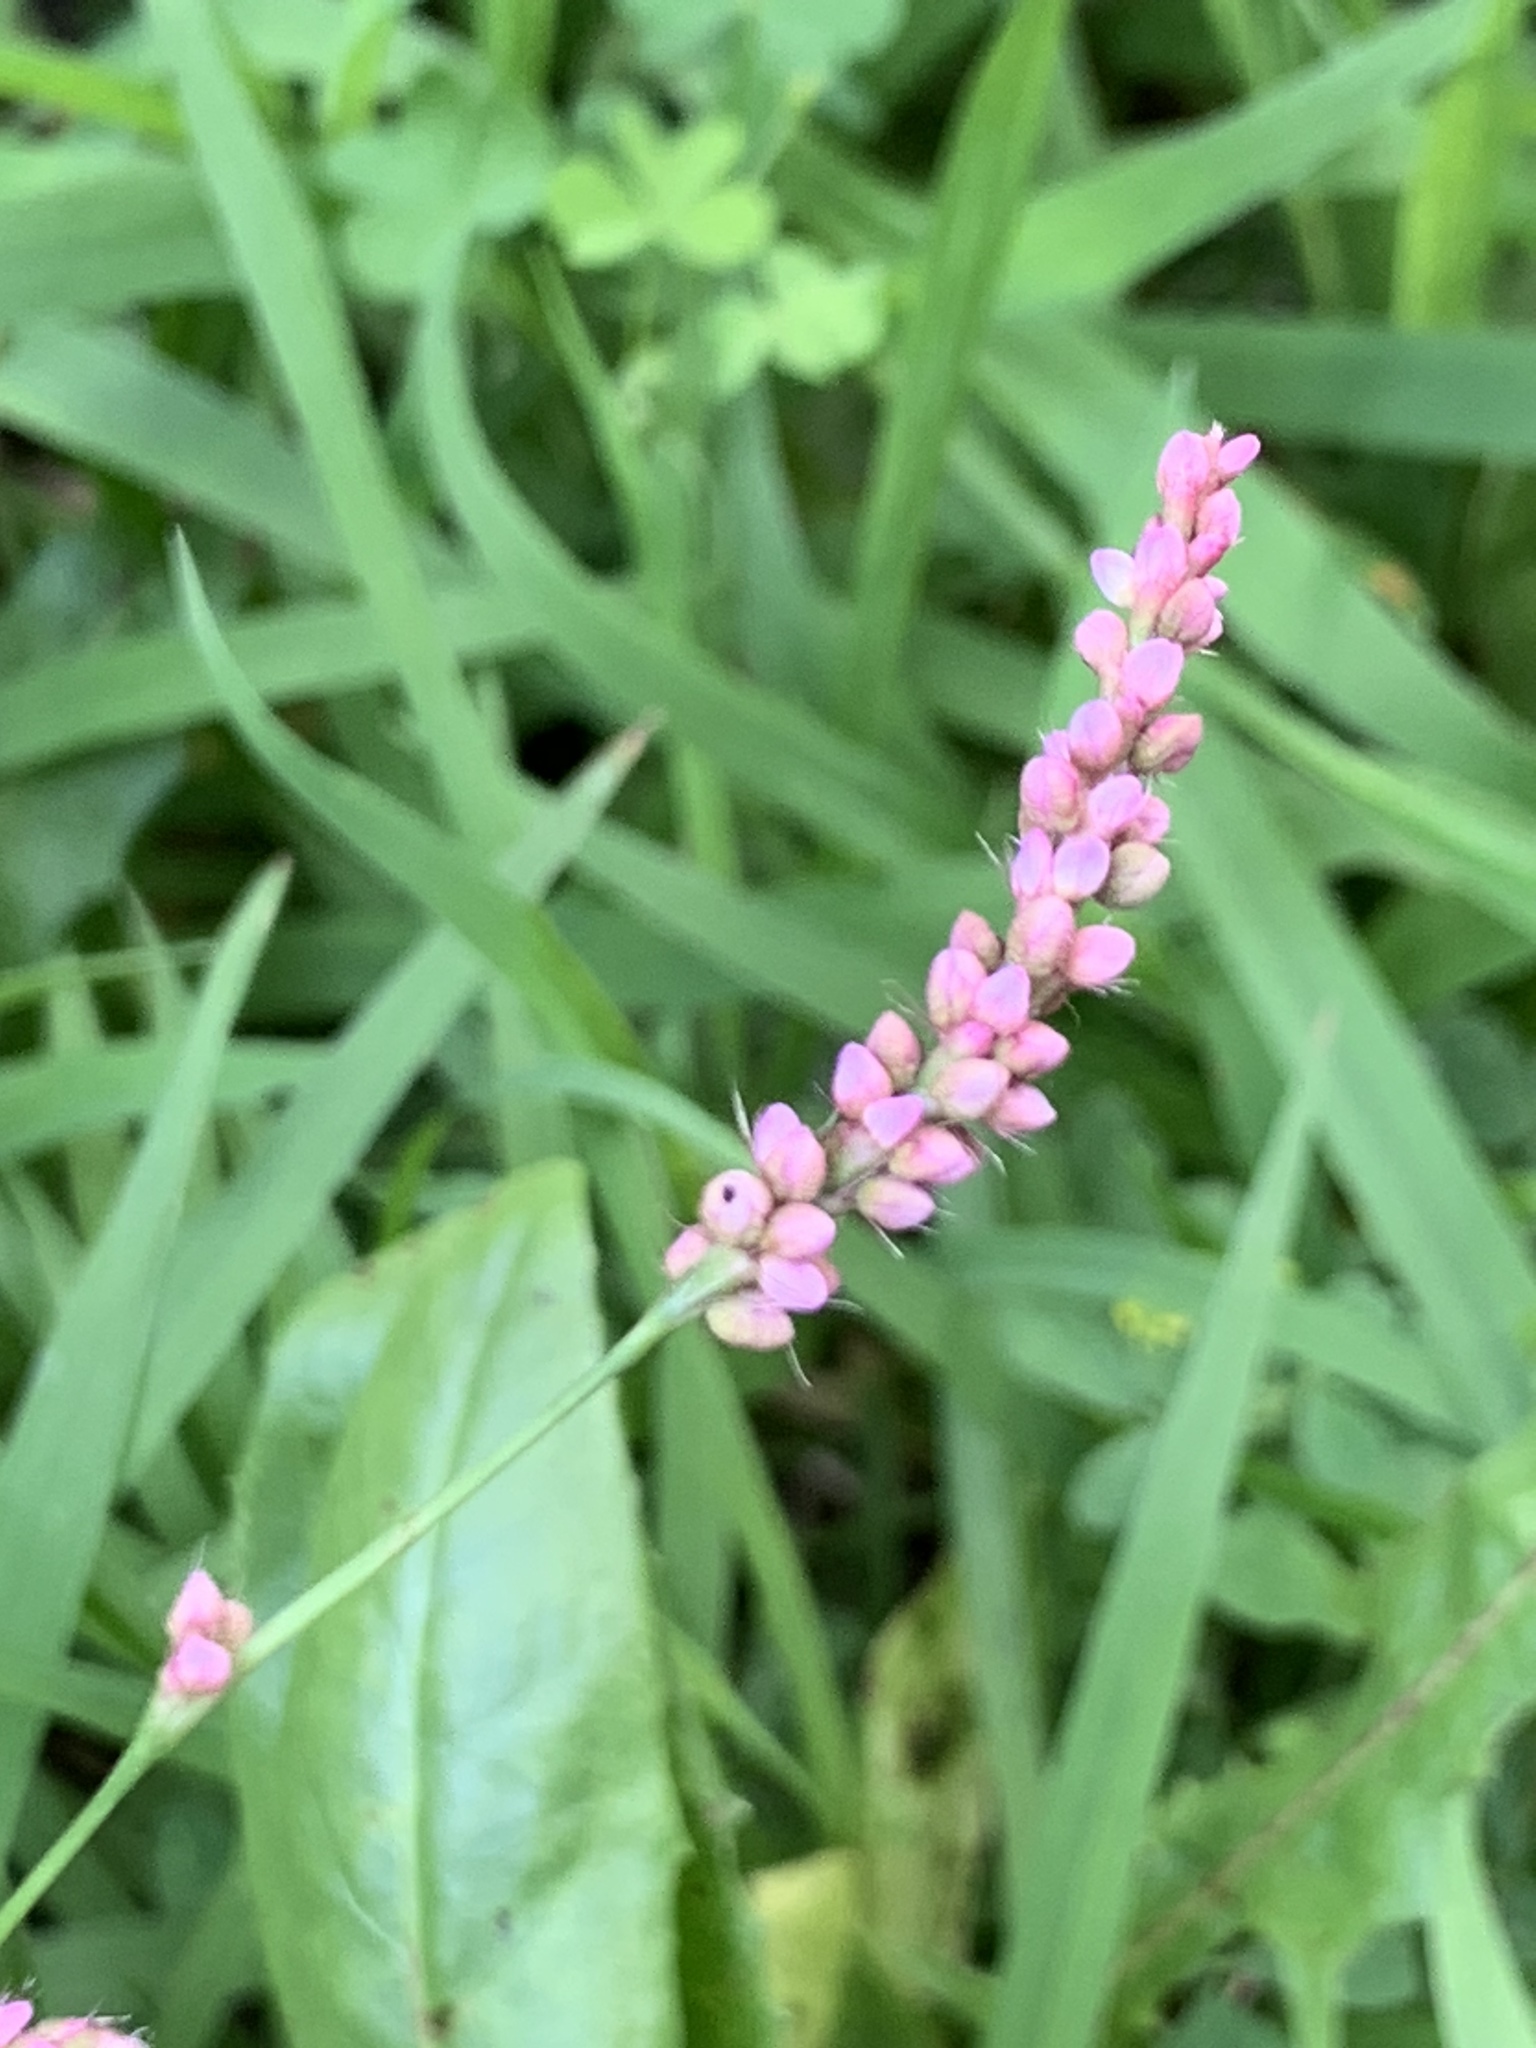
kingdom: Plantae
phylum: Tracheophyta
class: Magnoliopsida
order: Caryophyllales
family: Polygonaceae
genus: Persicaria
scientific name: Persicaria longiseta
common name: Bristly lady's-thumb
